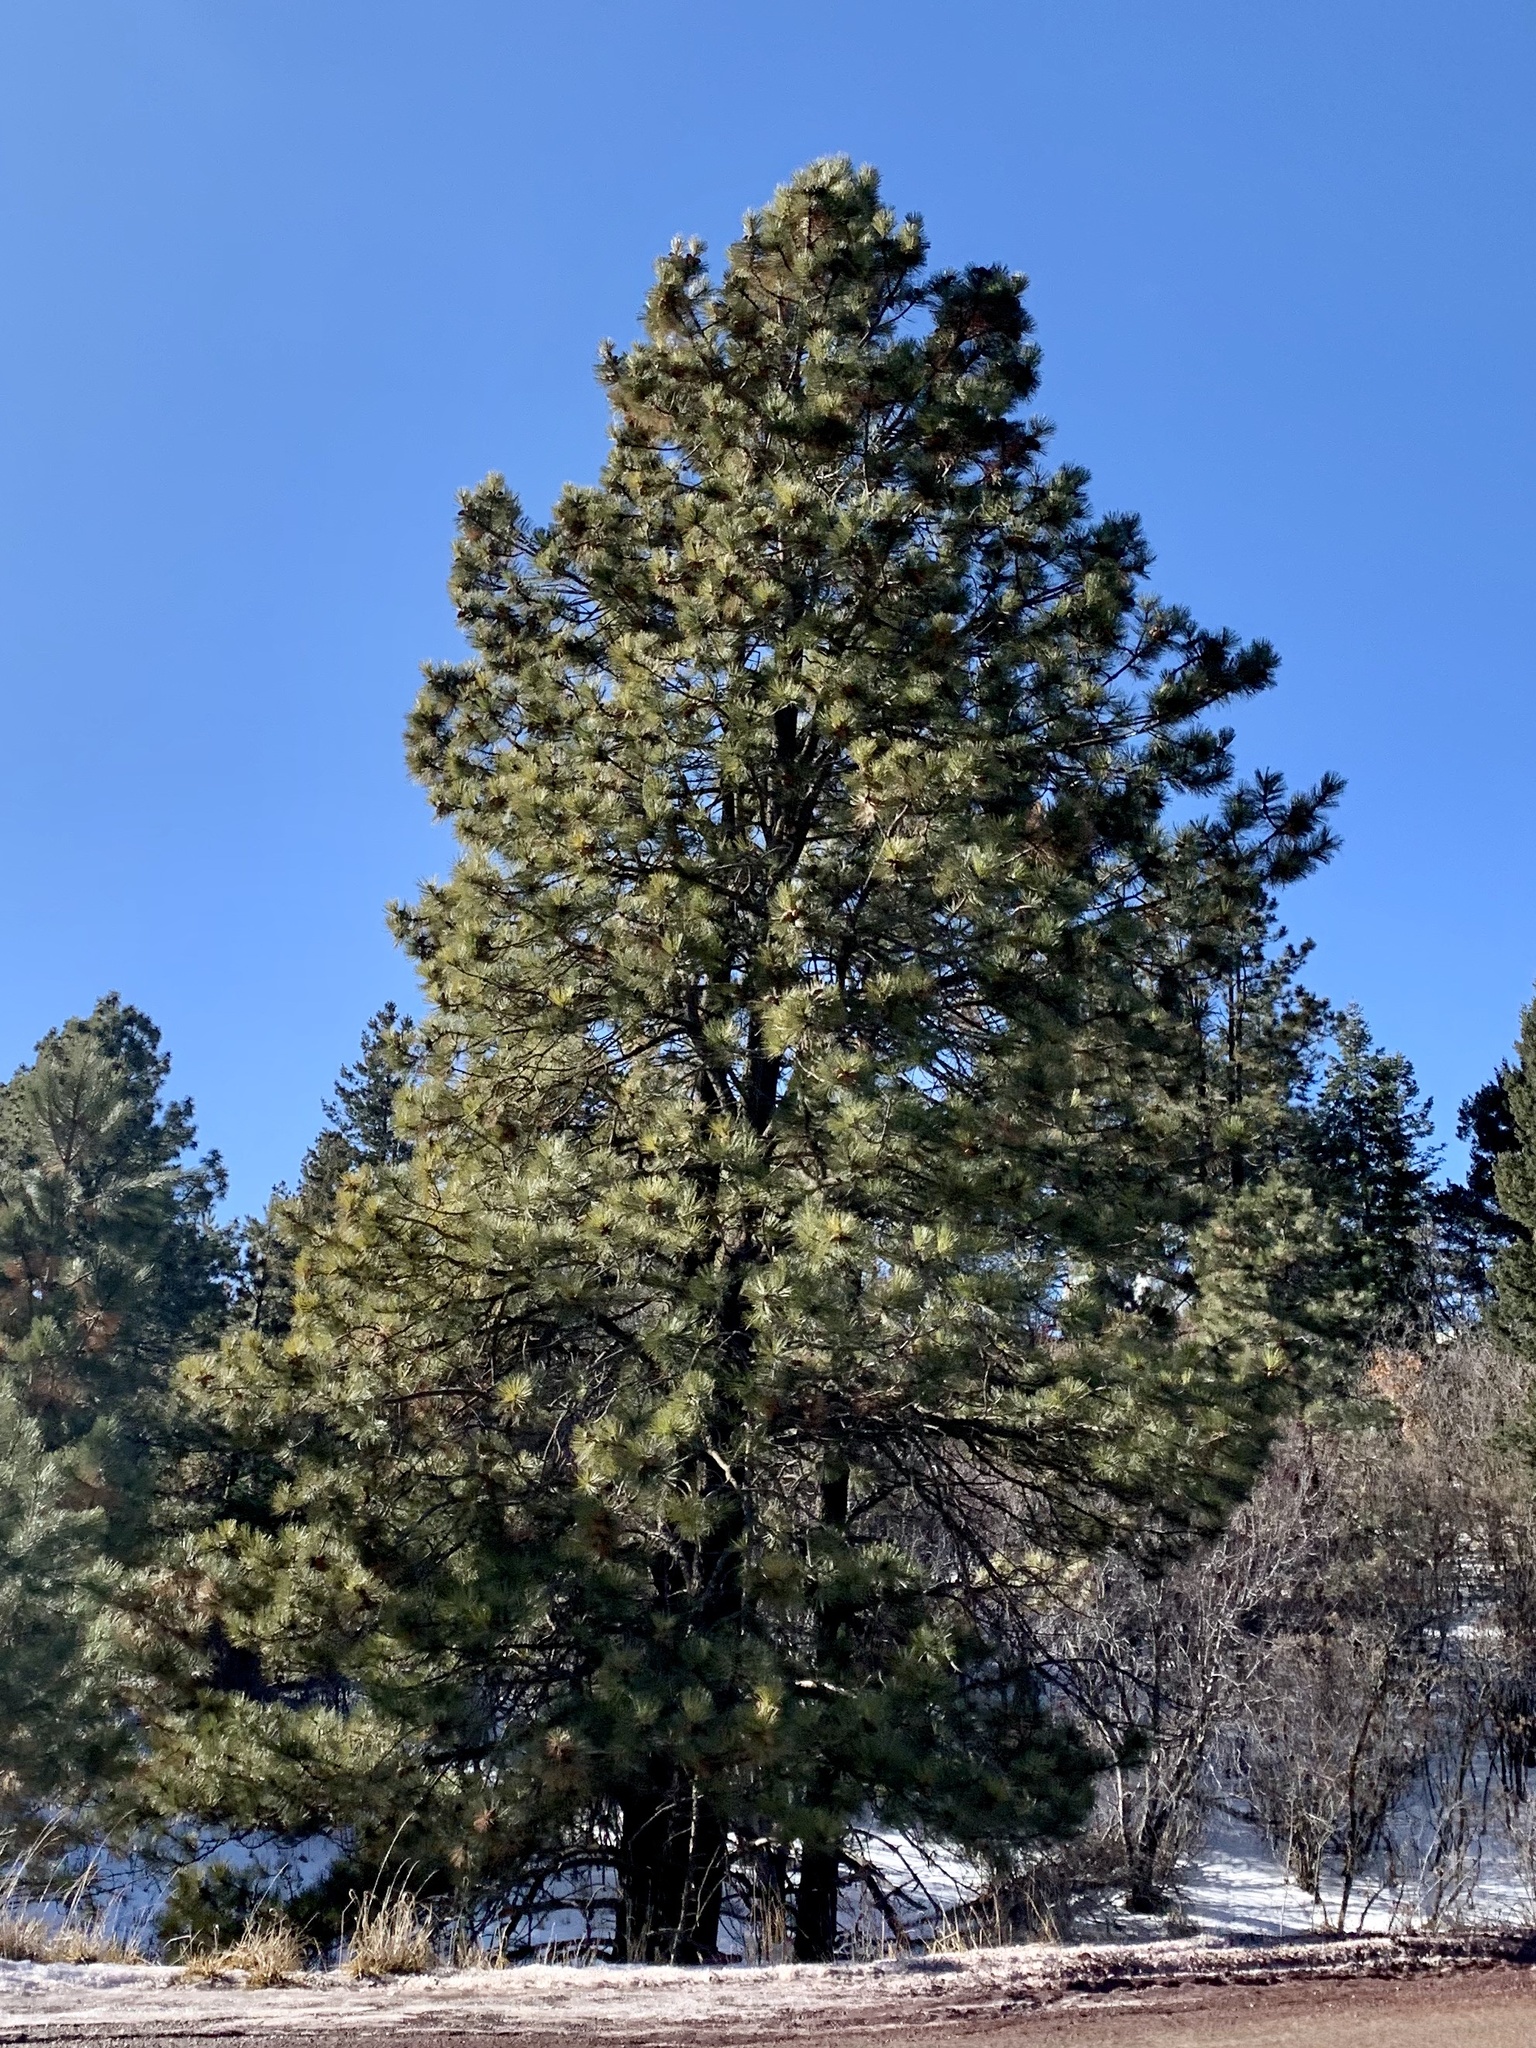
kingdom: Plantae
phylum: Tracheophyta
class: Pinopsida
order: Pinales
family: Pinaceae
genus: Pinus
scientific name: Pinus ponderosa
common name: Western yellow-pine
